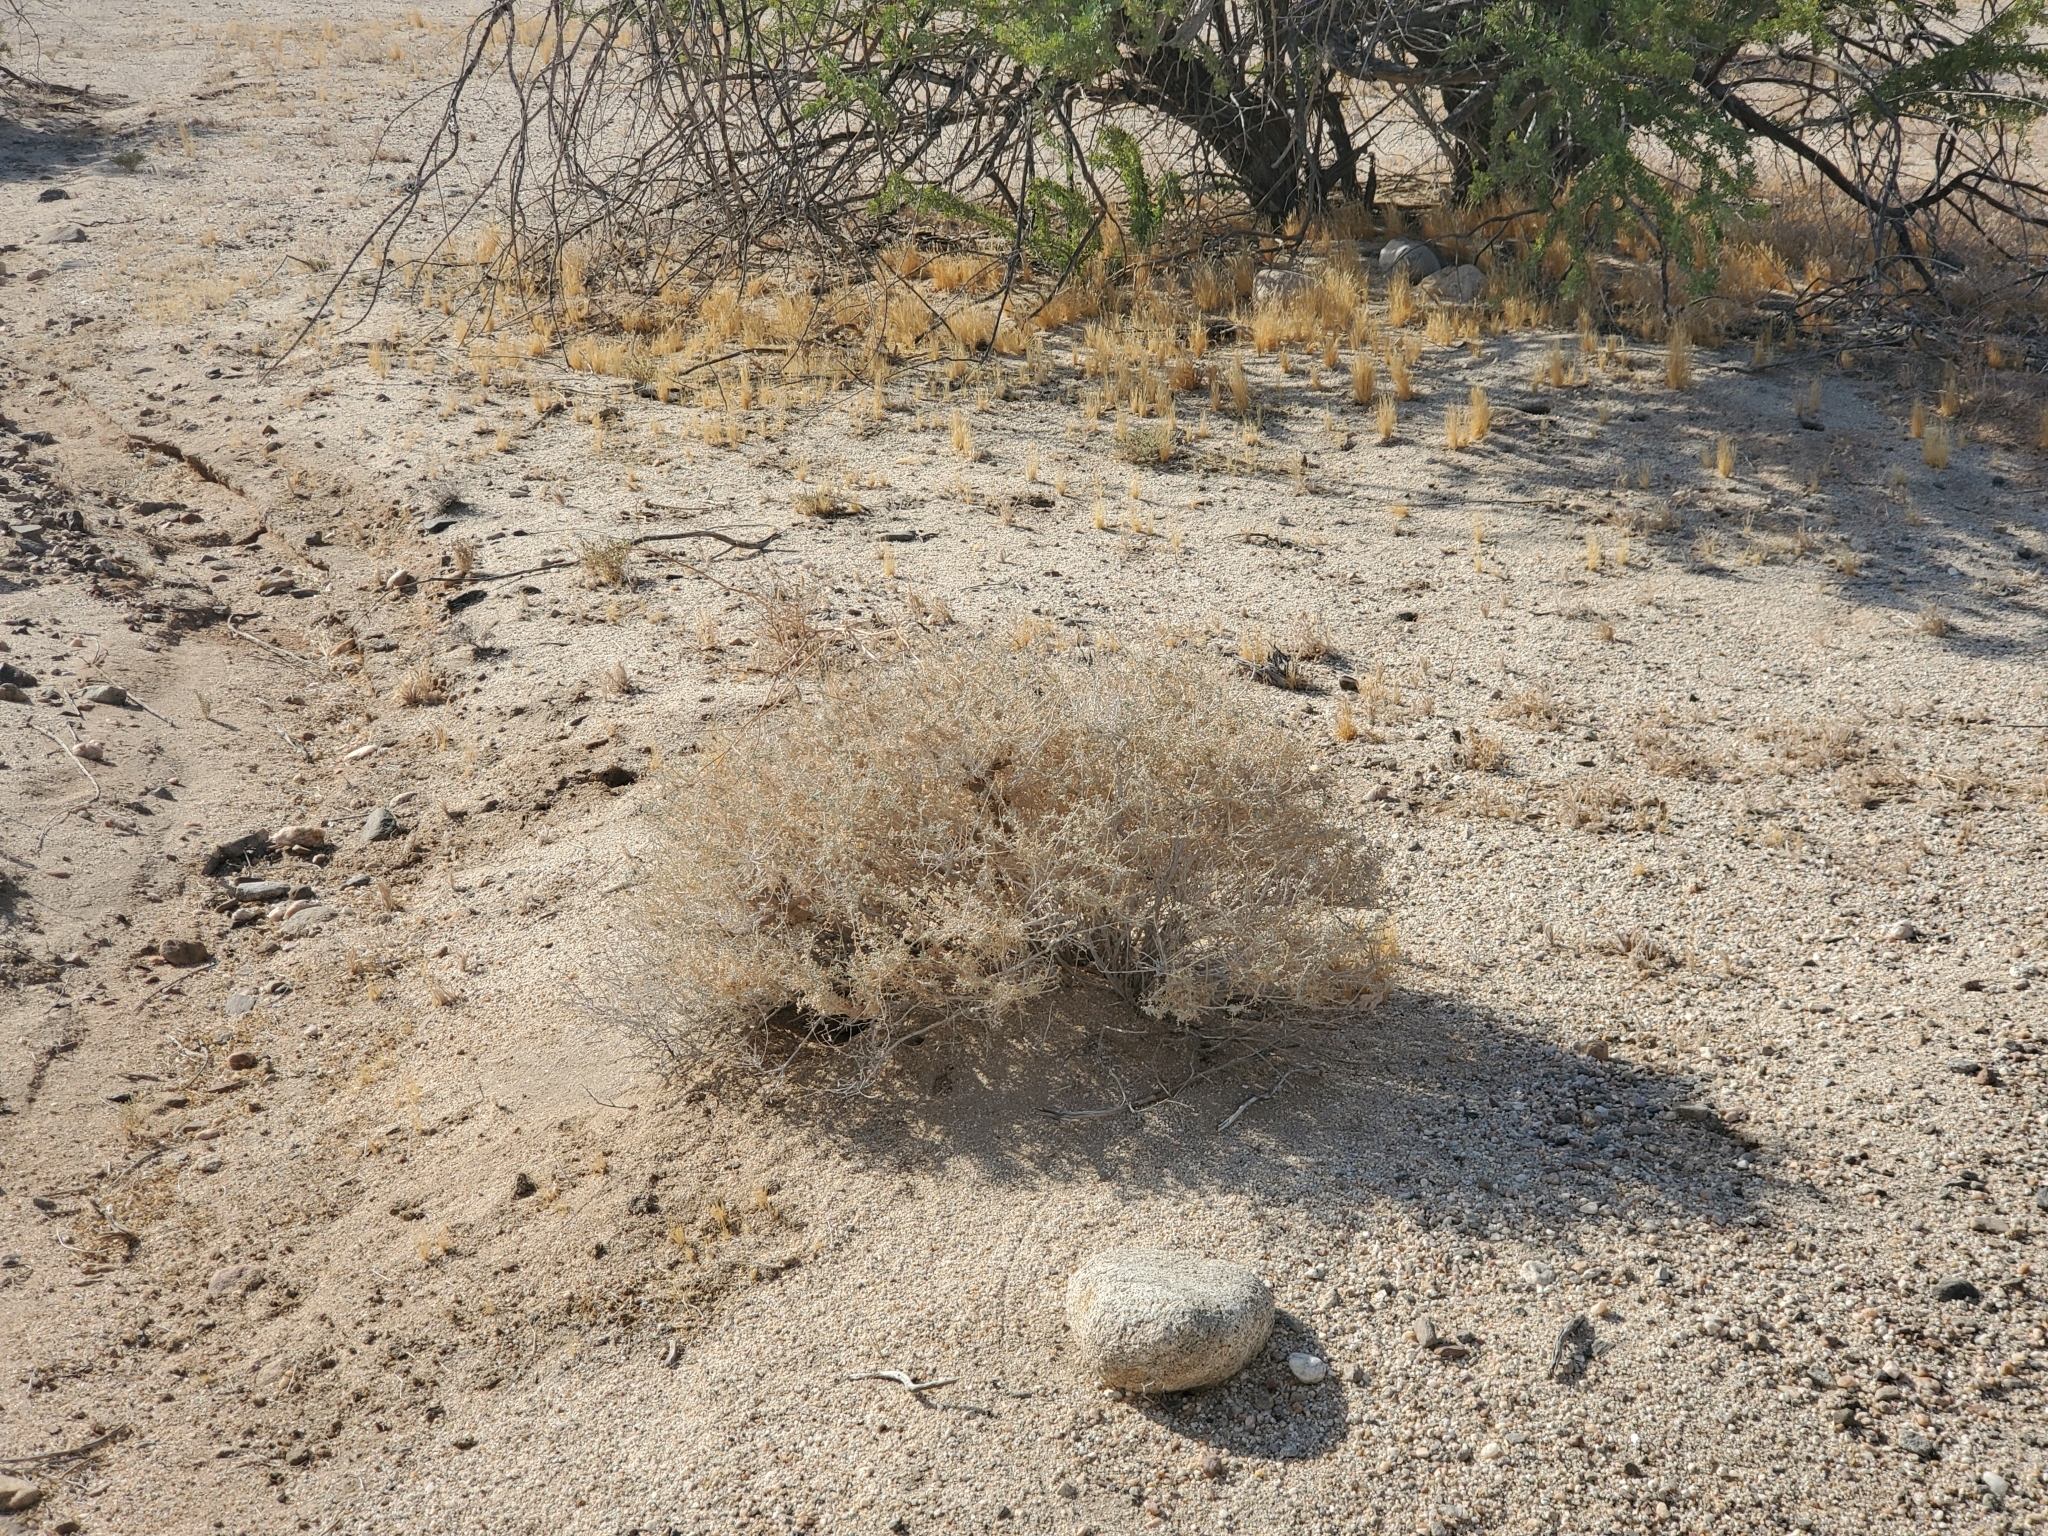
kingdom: Plantae
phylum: Tracheophyta
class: Magnoliopsida
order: Asterales
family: Asteraceae
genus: Ambrosia
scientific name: Ambrosia dumosa
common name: Bur-sage
